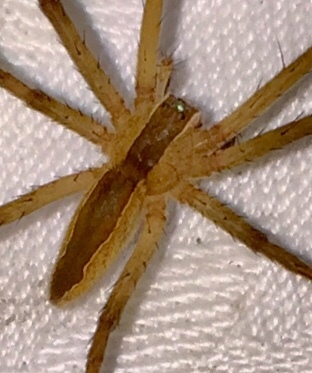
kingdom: Animalia
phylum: Arthropoda
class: Arachnida
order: Araneae
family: Pisauridae
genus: Pisaurina
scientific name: Pisaurina mira
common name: American nursery web spider
